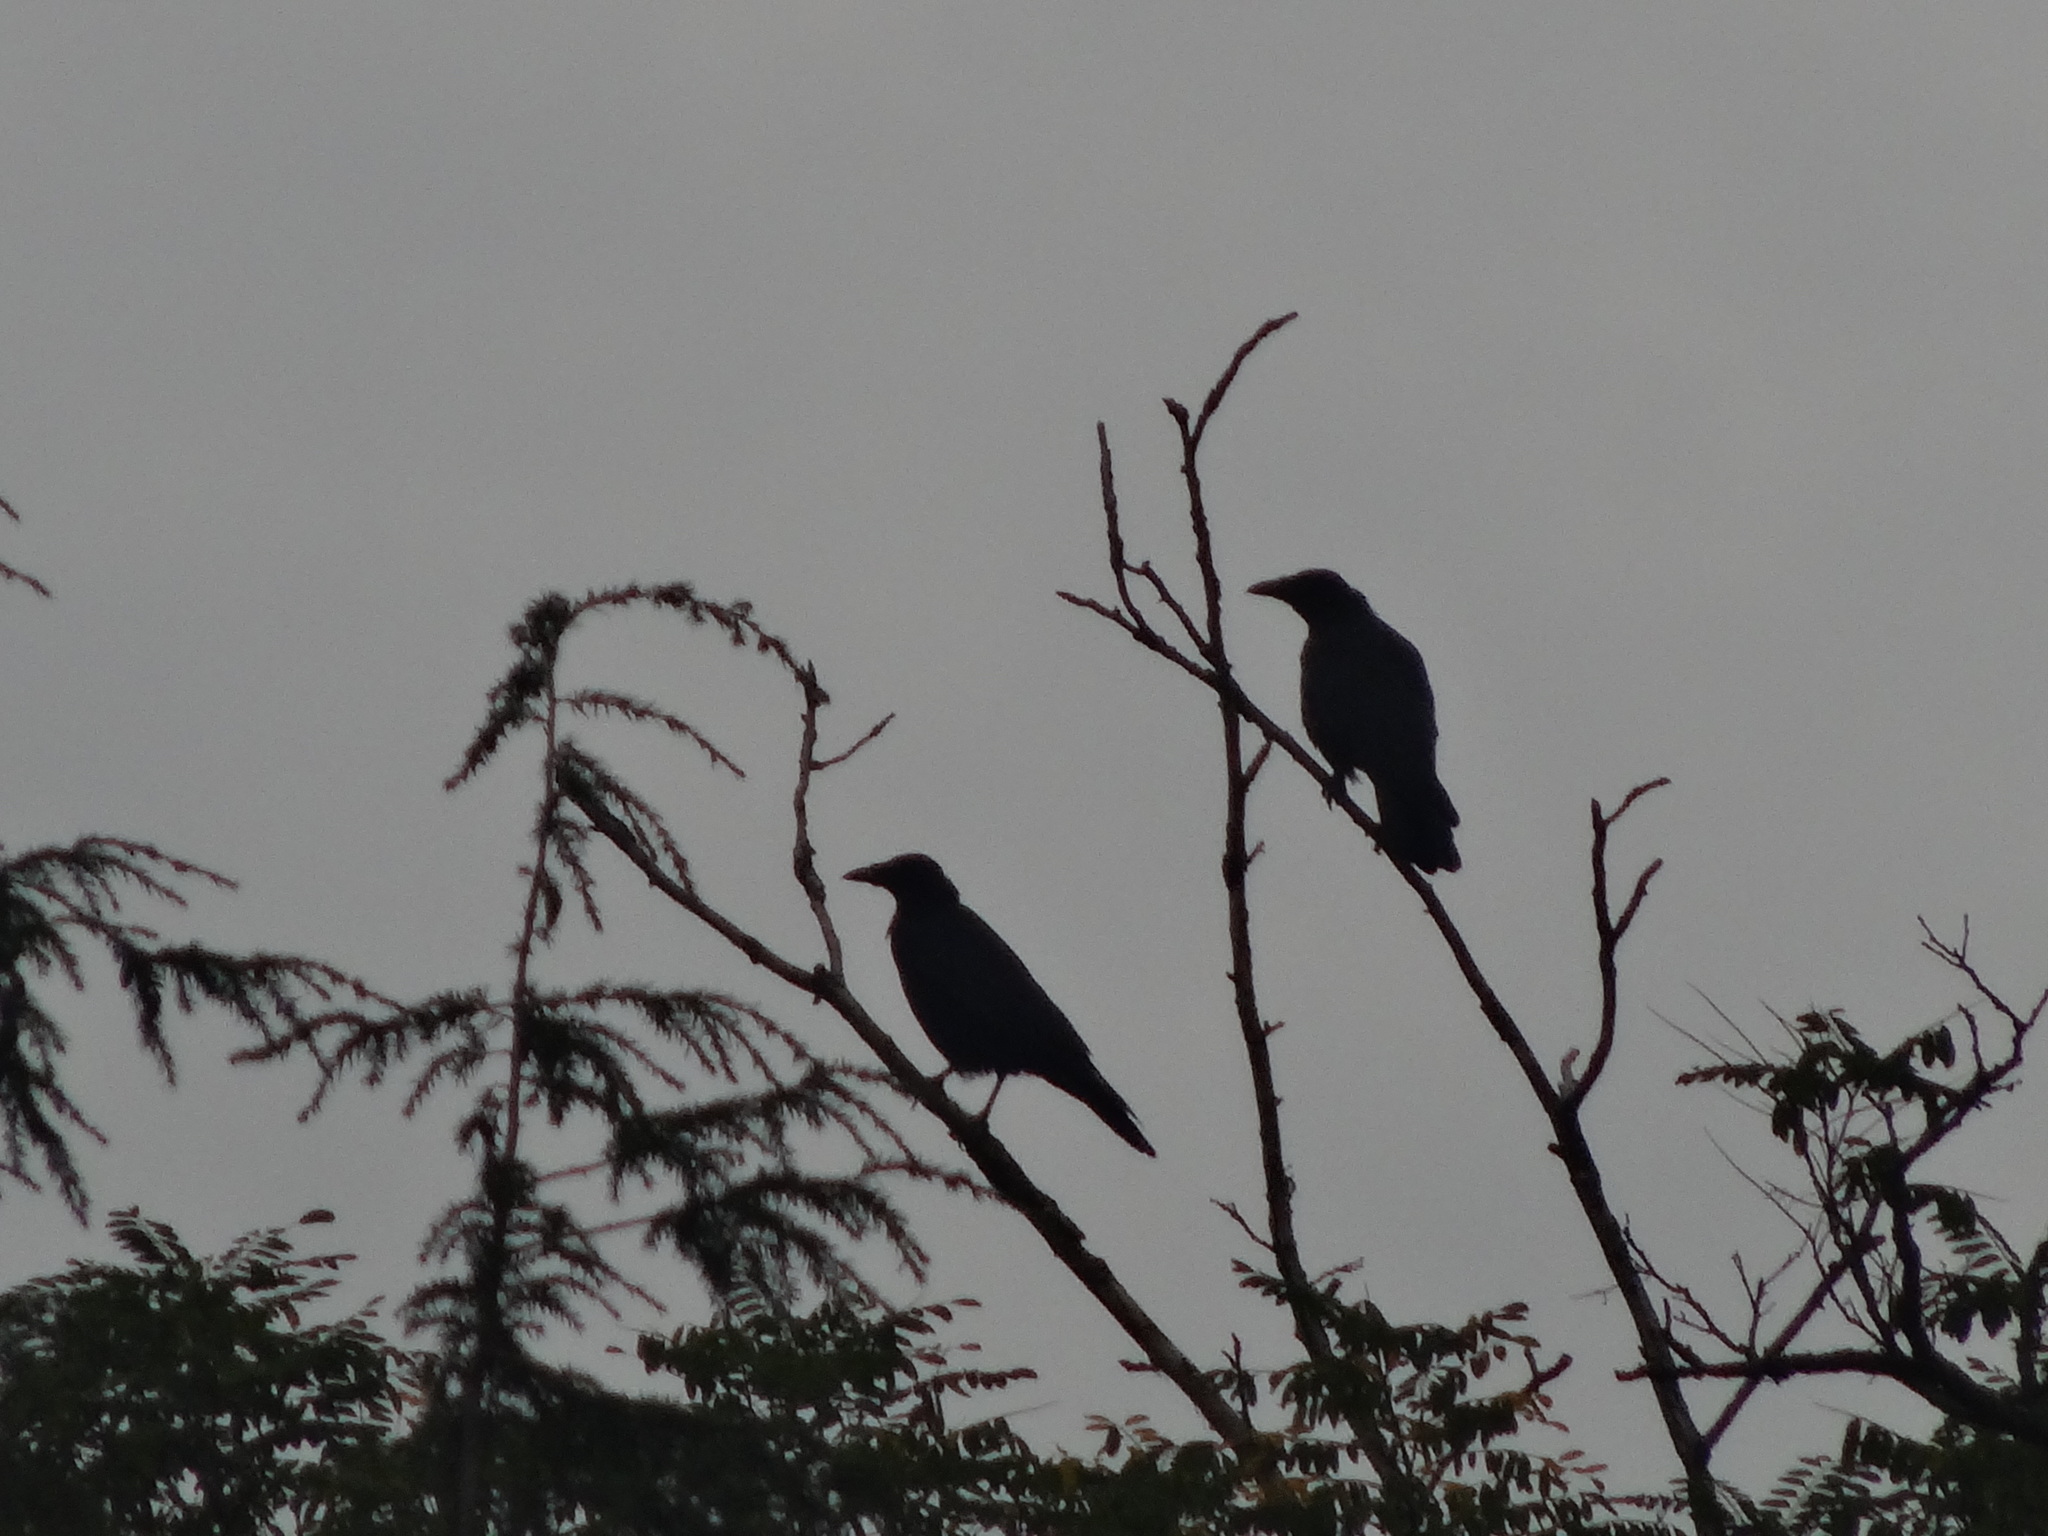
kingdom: Animalia
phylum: Chordata
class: Aves
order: Passeriformes
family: Corvidae
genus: Corvus
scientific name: Corvus corone
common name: Carrion crow
